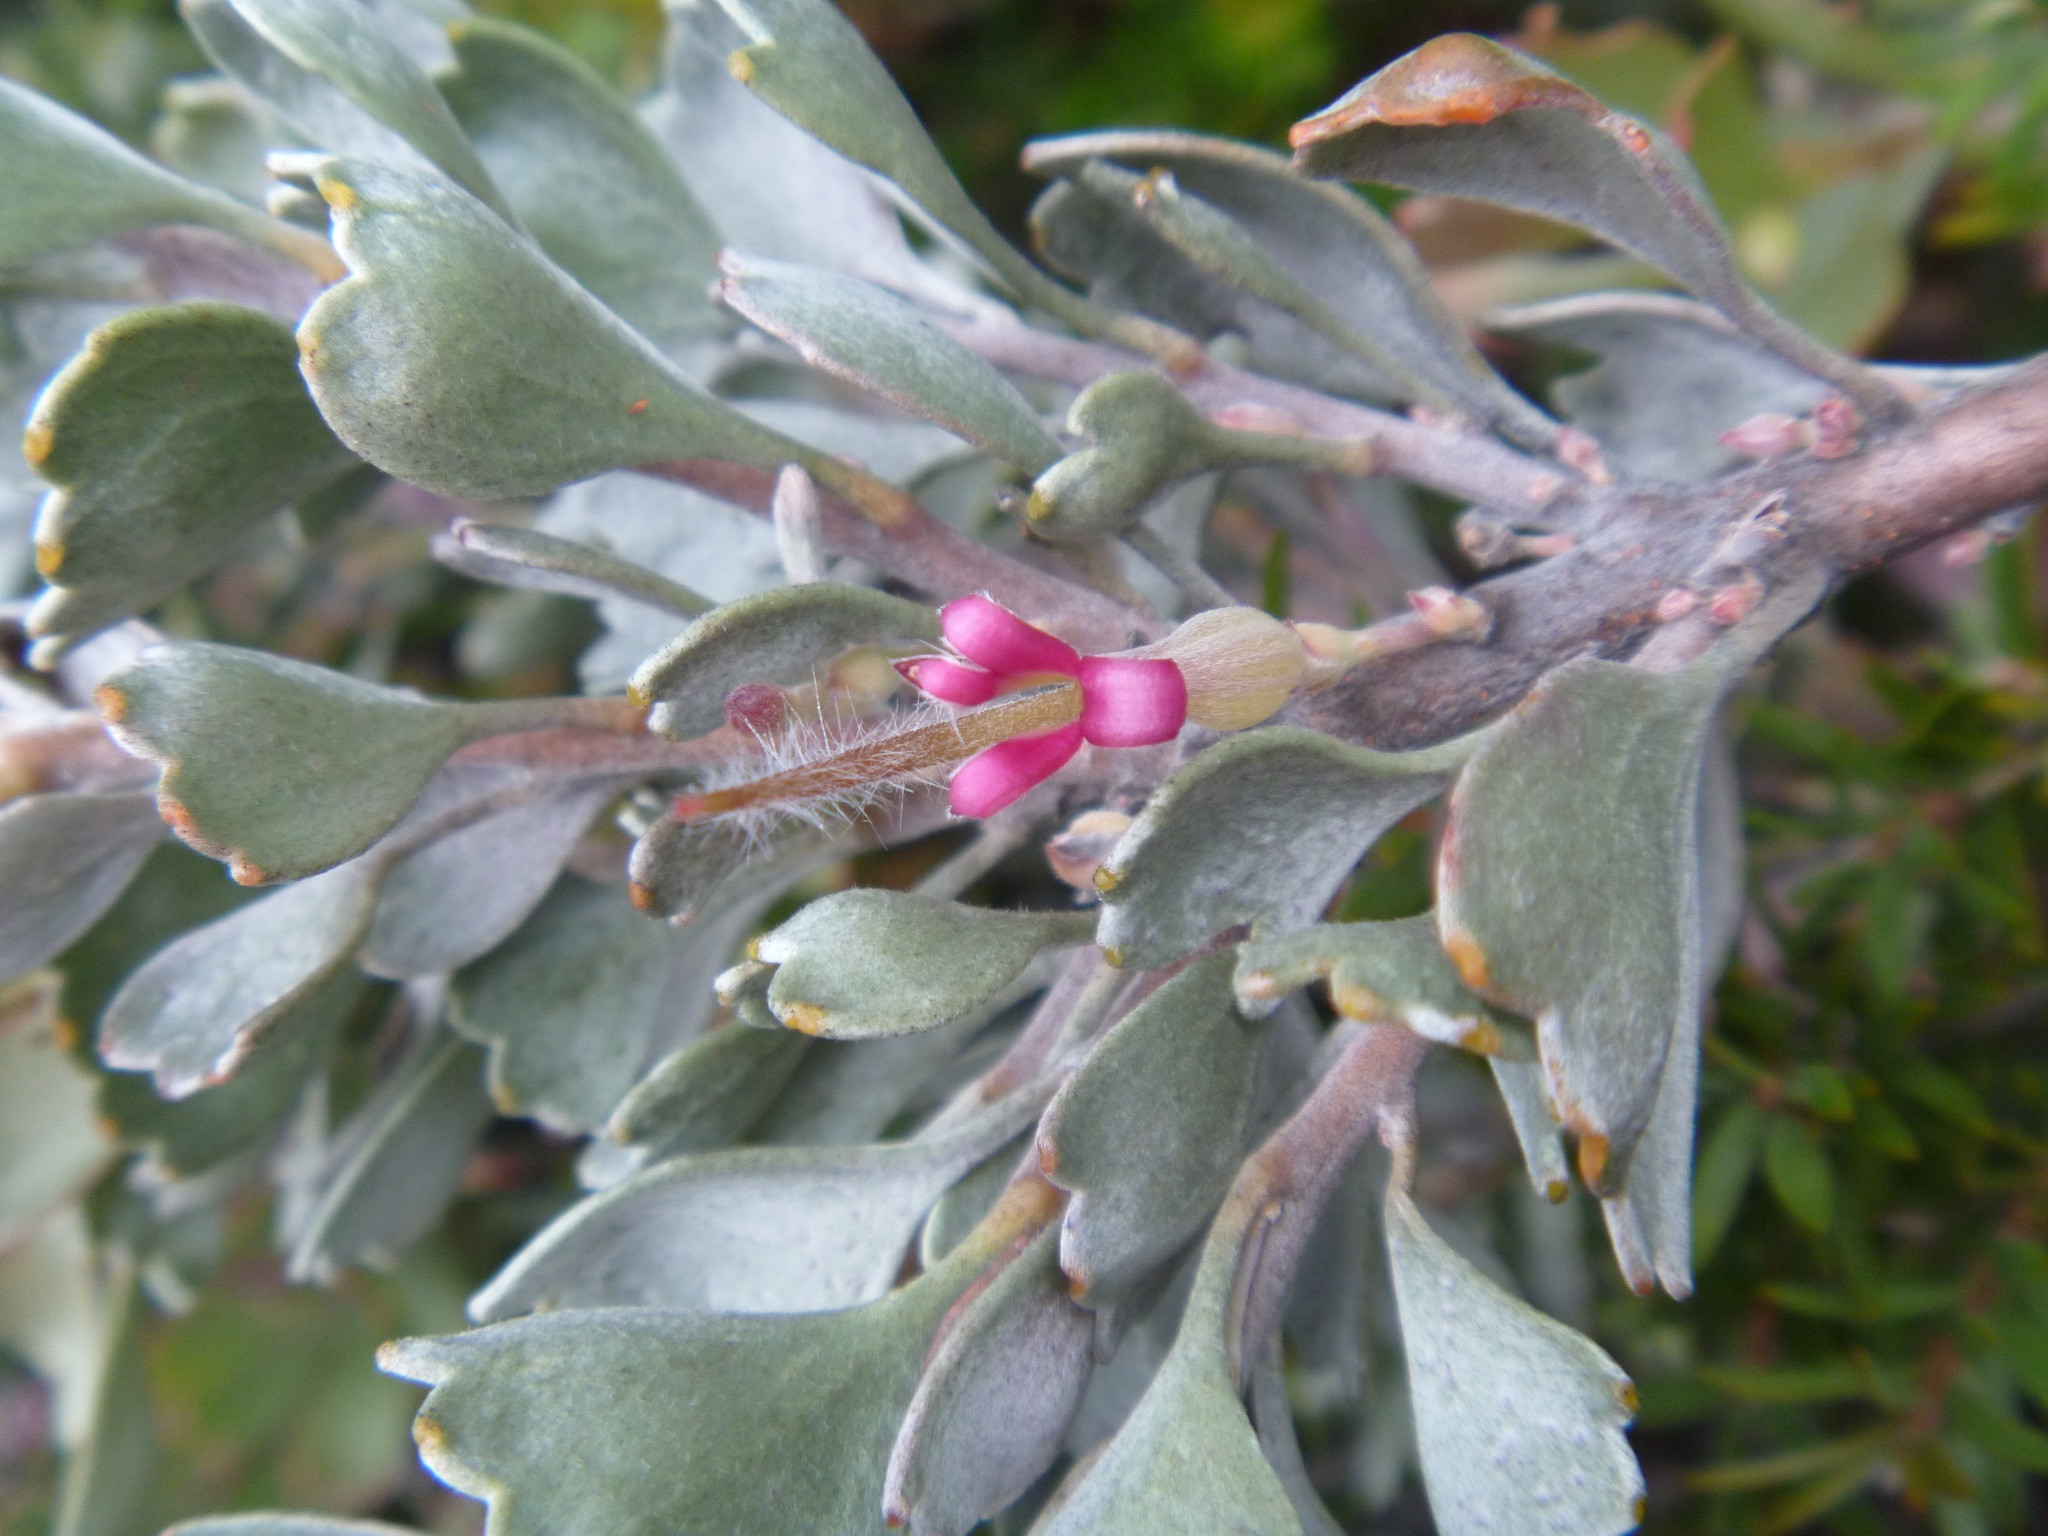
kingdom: Plantae
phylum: Tracheophyta
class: Magnoliopsida
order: Proteales
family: Proteaceae
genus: Adenanthos
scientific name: Adenanthos cuneatus
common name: Flamebush
